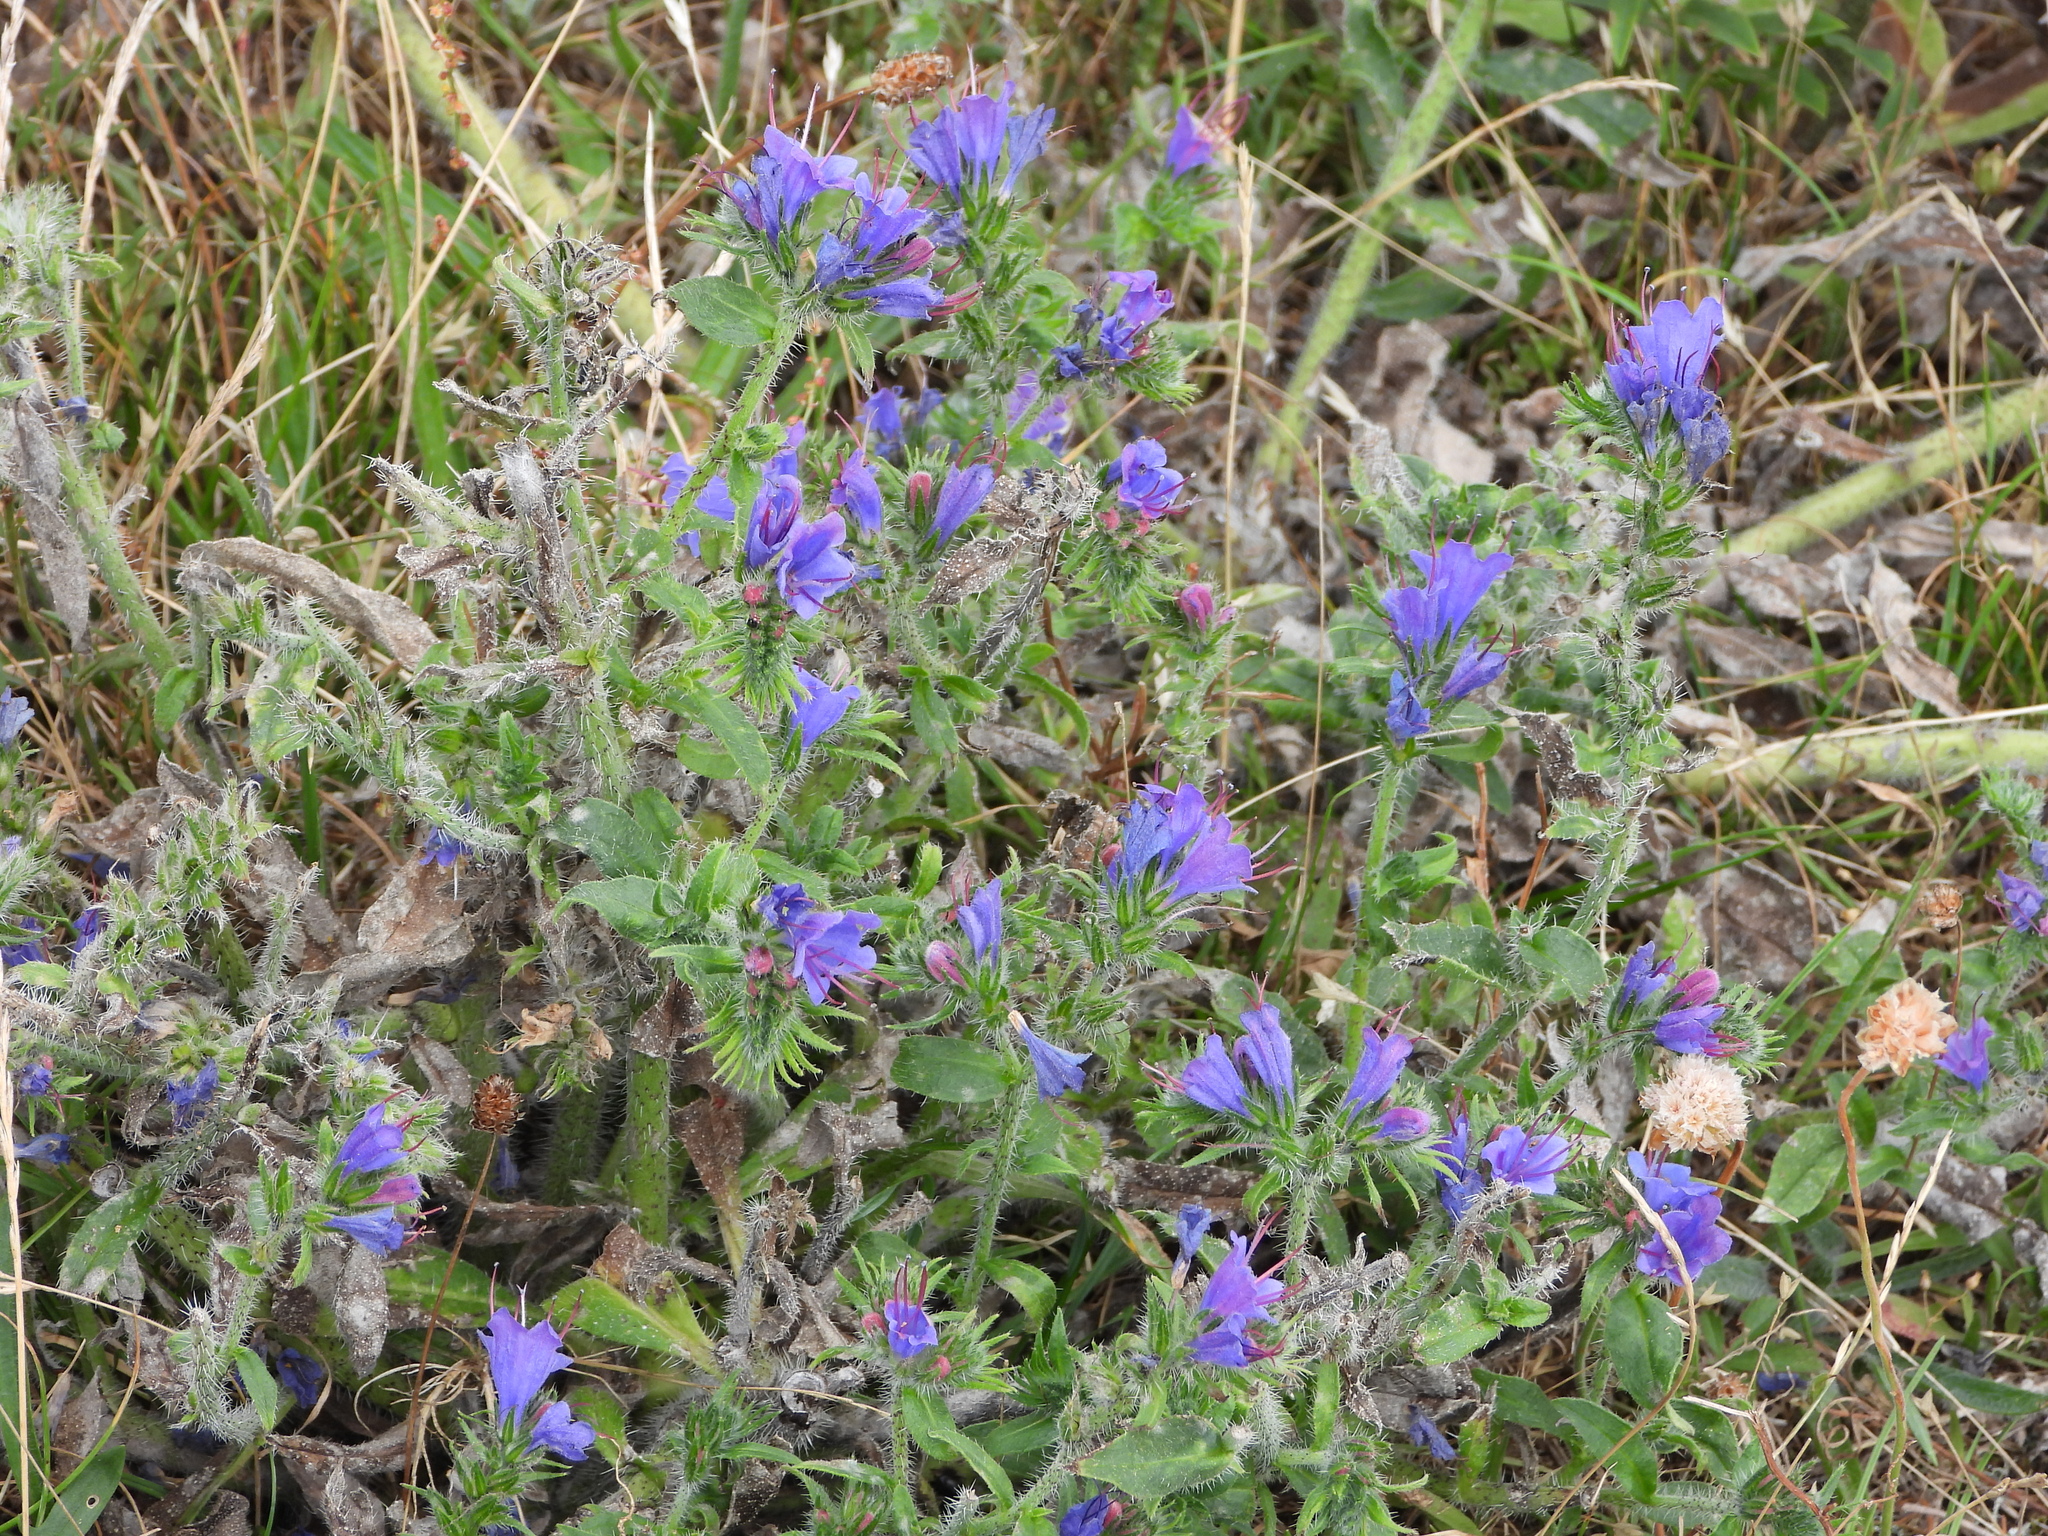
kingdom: Plantae
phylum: Tracheophyta
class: Magnoliopsida
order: Boraginales
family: Boraginaceae
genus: Echium
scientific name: Echium vulgare
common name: Common viper's bugloss
